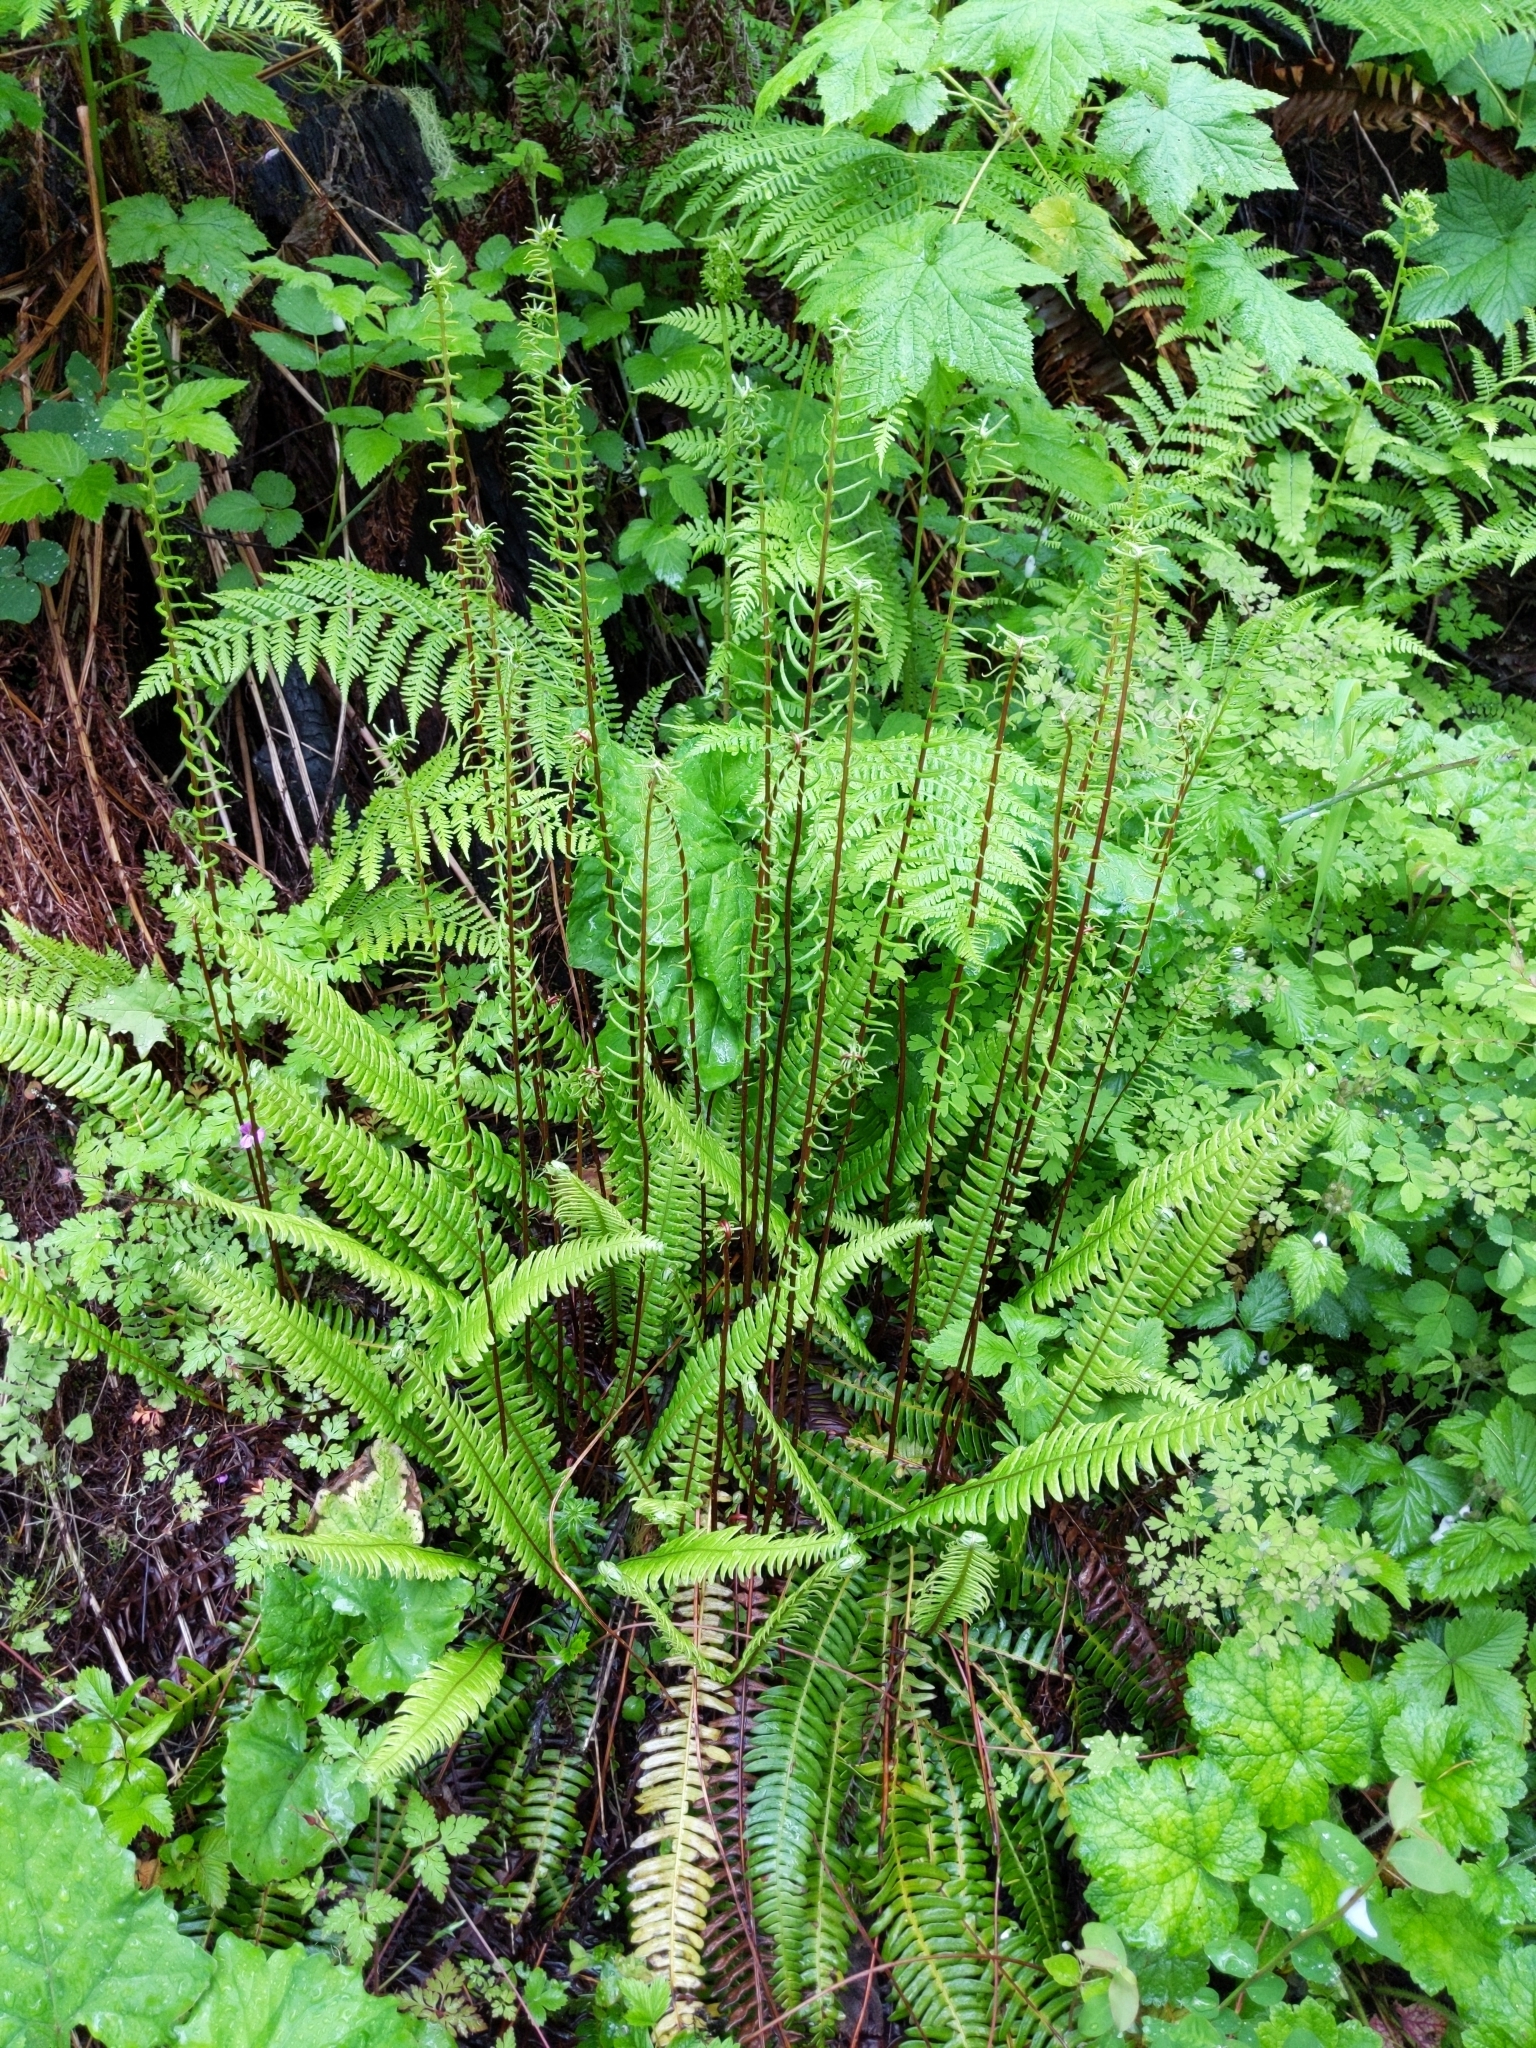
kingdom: Plantae
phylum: Tracheophyta
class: Polypodiopsida
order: Polypodiales
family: Blechnaceae
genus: Struthiopteris
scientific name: Struthiopteris spicant
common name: Deer fern
